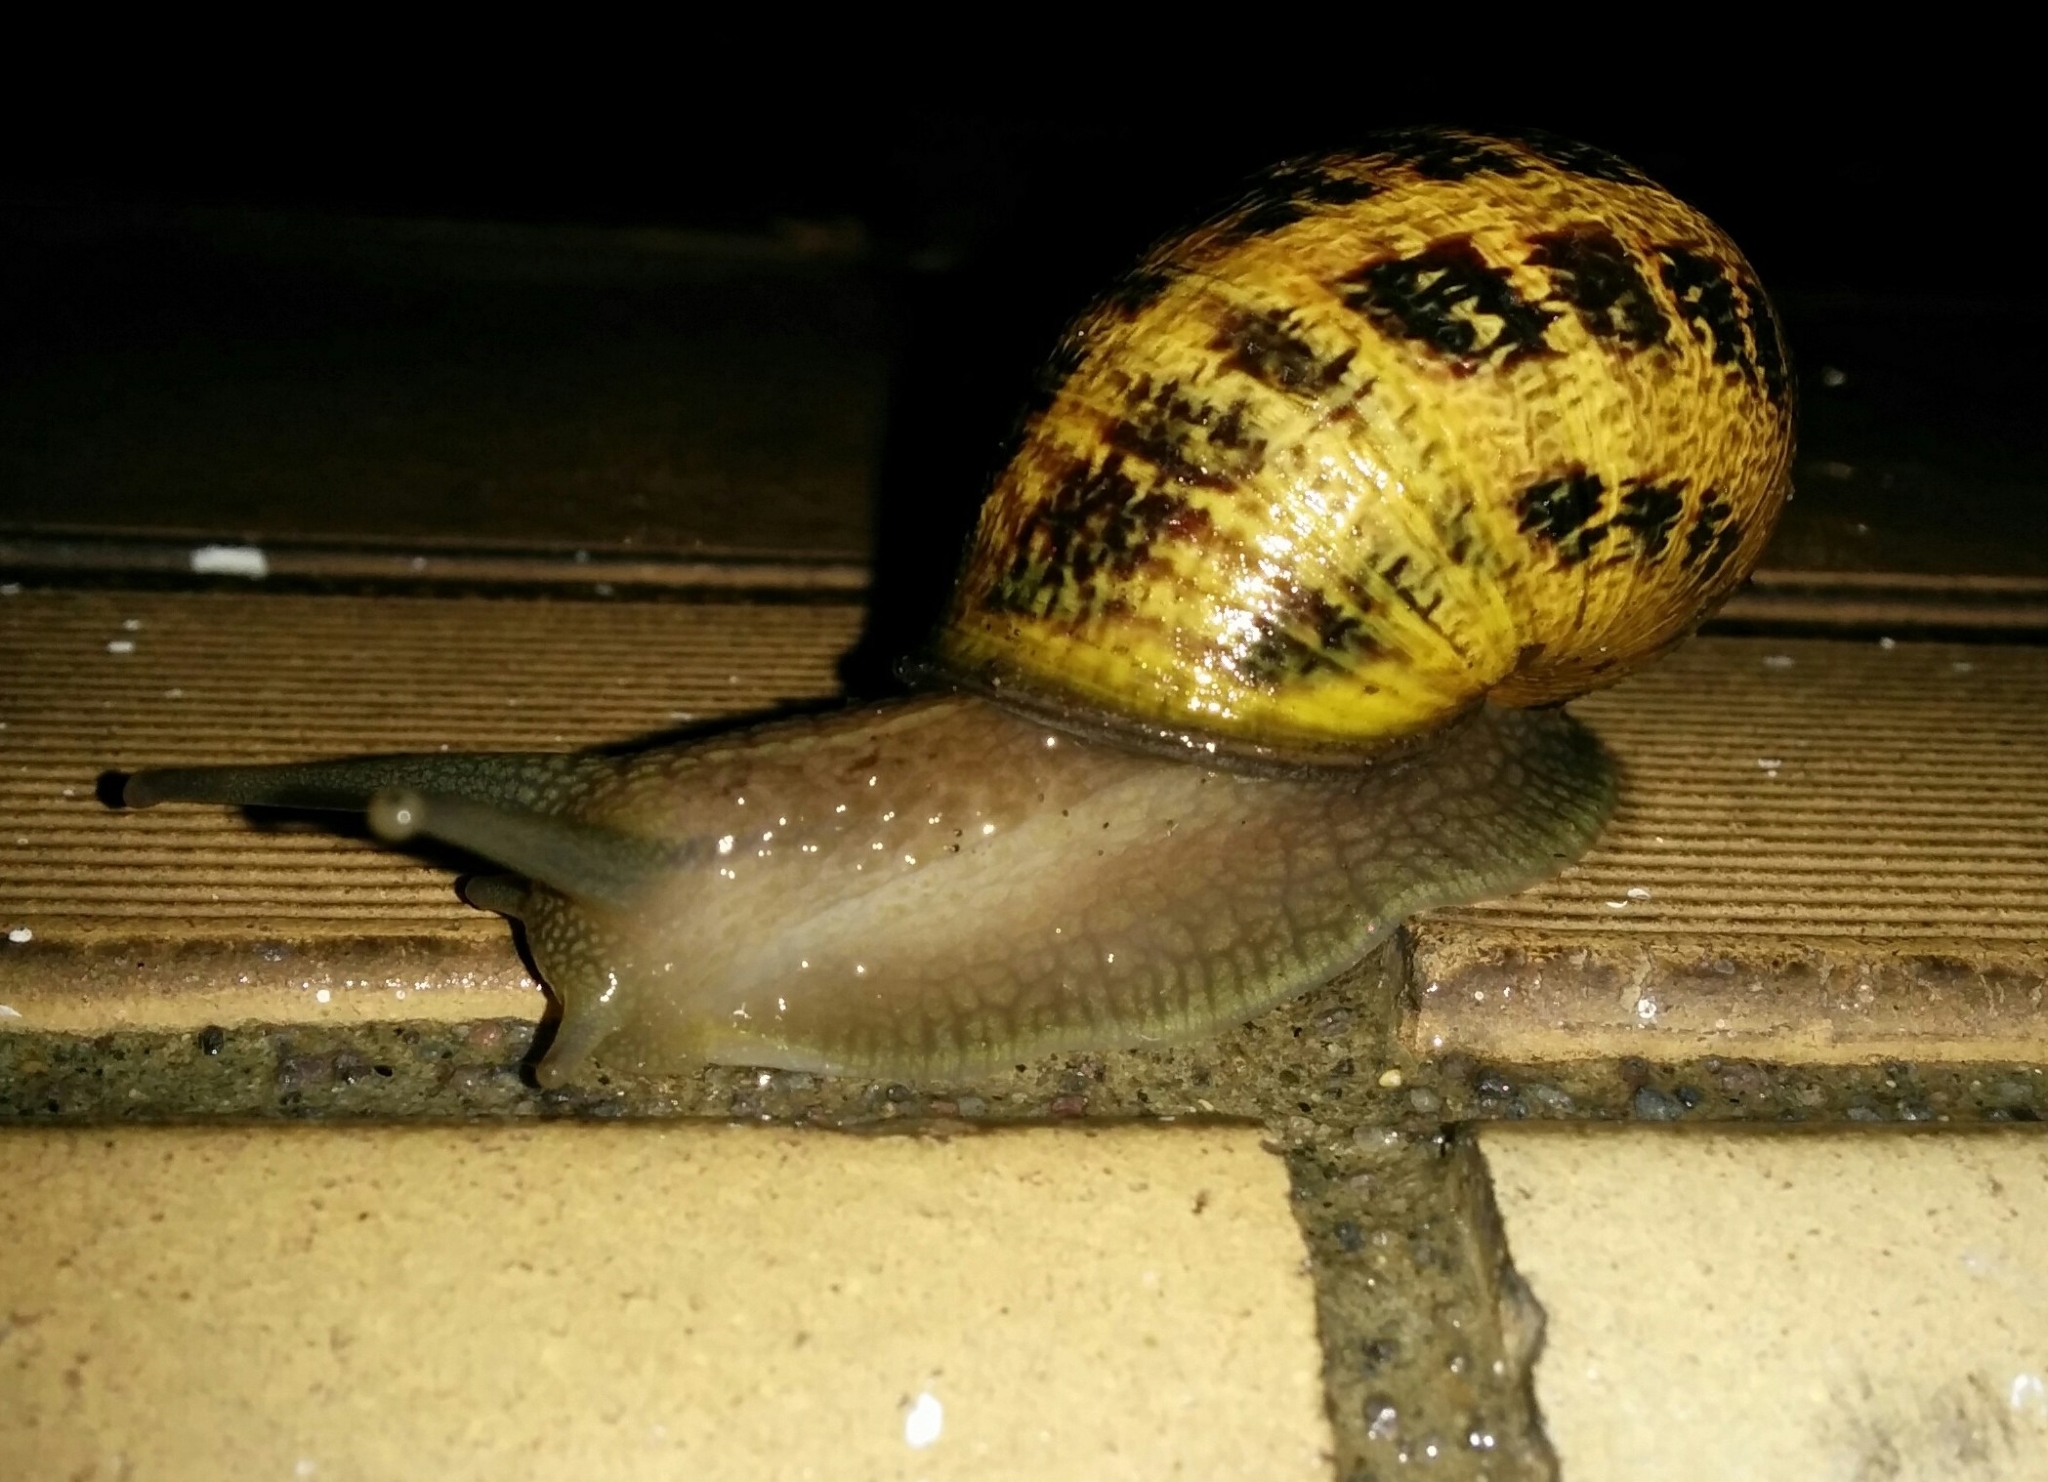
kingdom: Animalia
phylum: Mollusca
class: Gastropoda
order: Stylommatophora
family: Helicidae
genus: Cornu
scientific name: Cornu aspersum
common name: Brown garden snail
